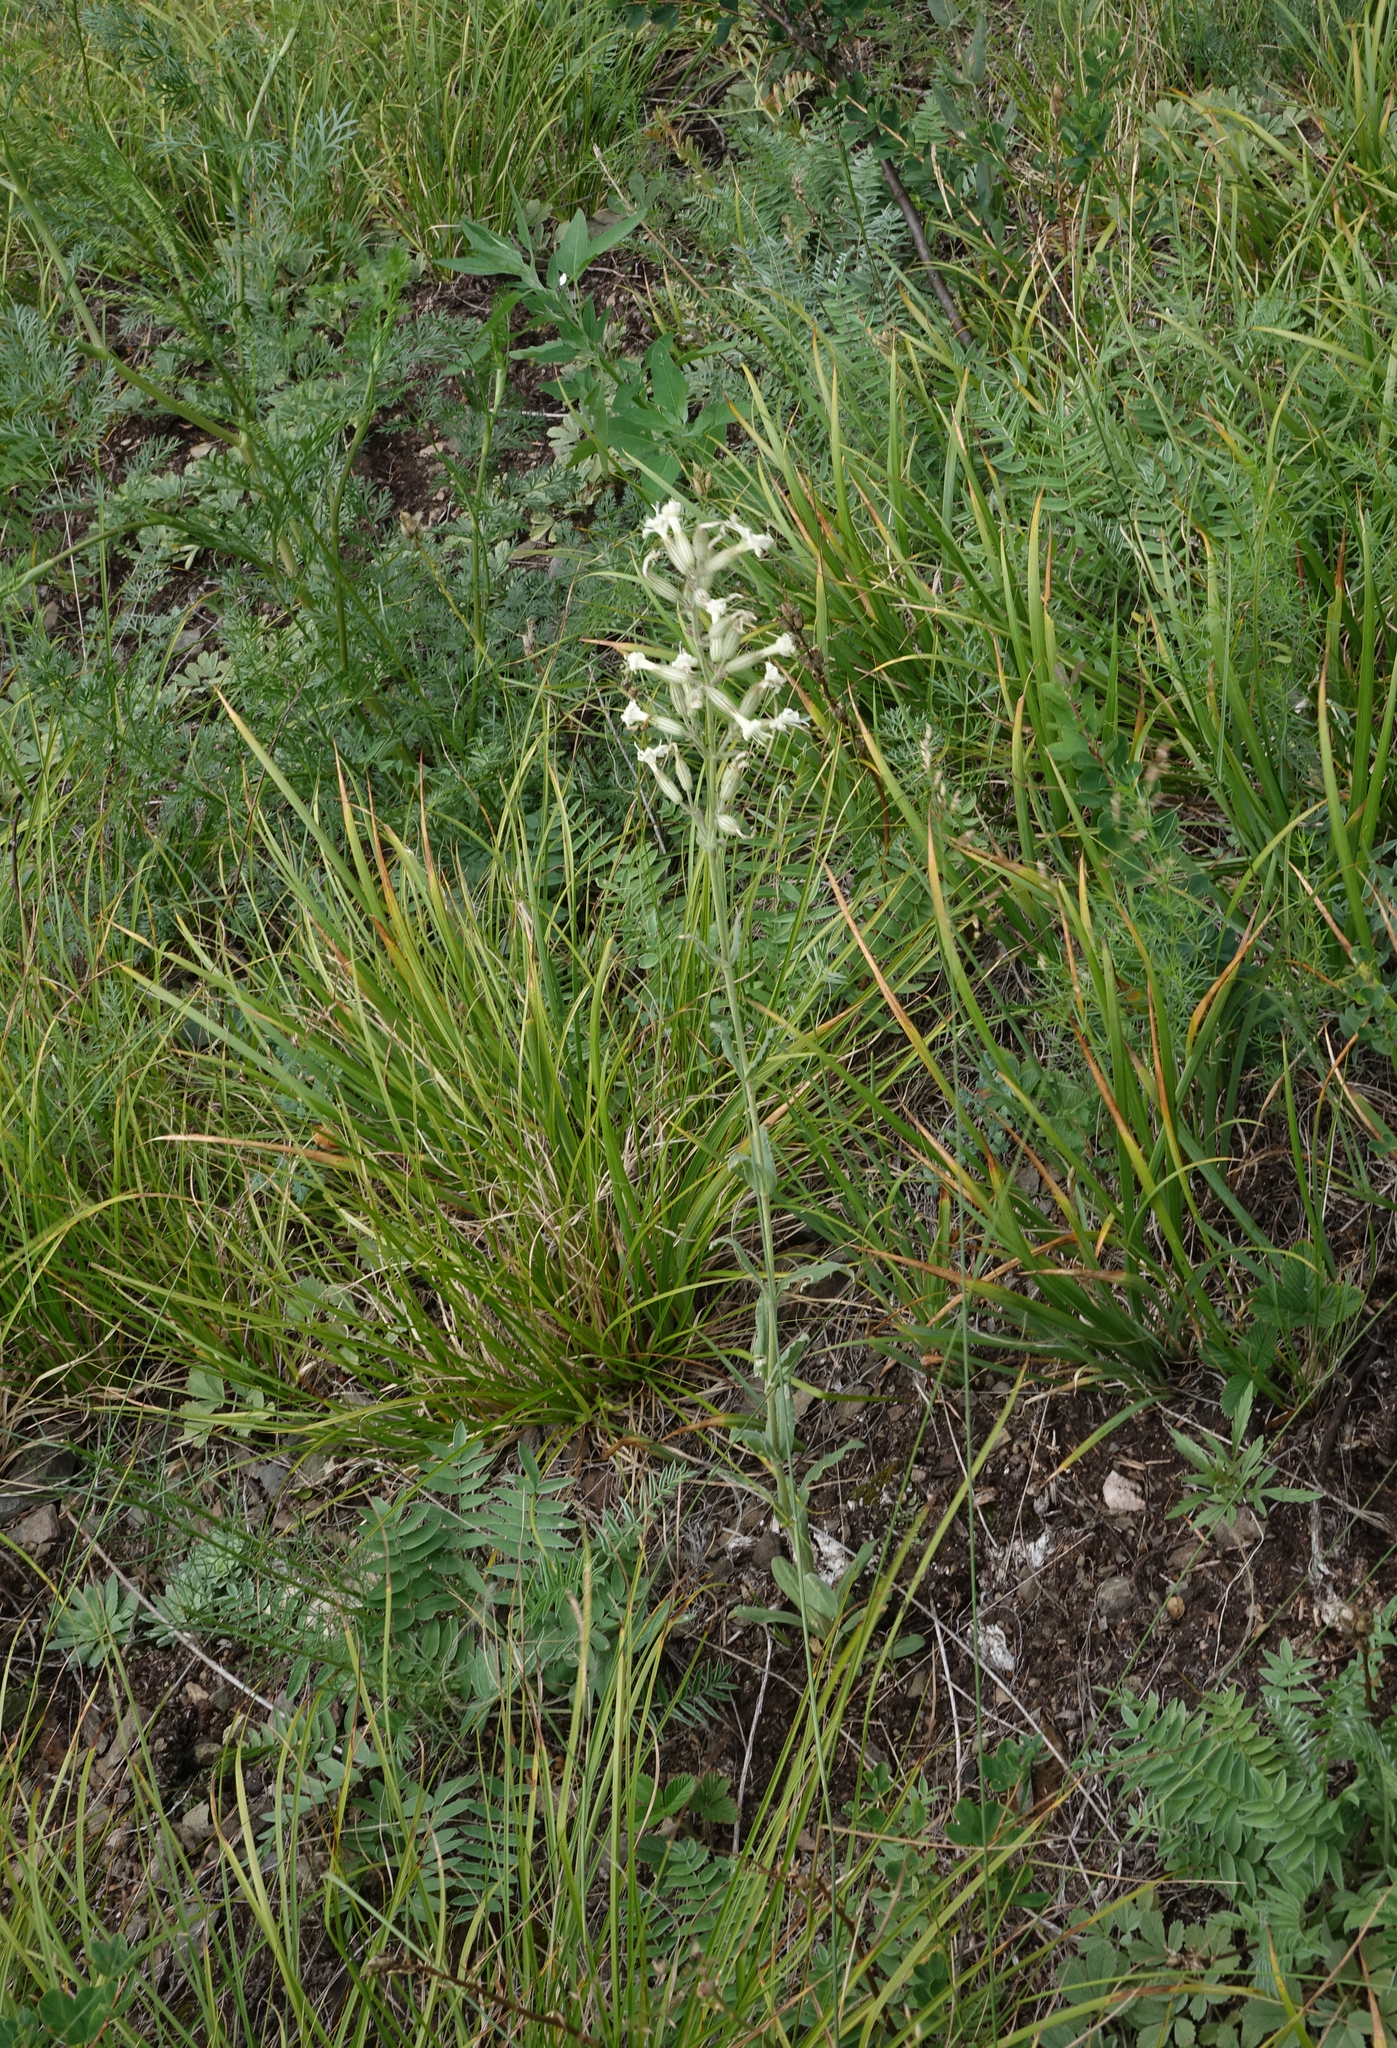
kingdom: Plantae
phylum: Tracheophyta
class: Magnoliopsida
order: Caryophyllales
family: Caryophyllaceae
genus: Silene
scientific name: Silene viscosa
